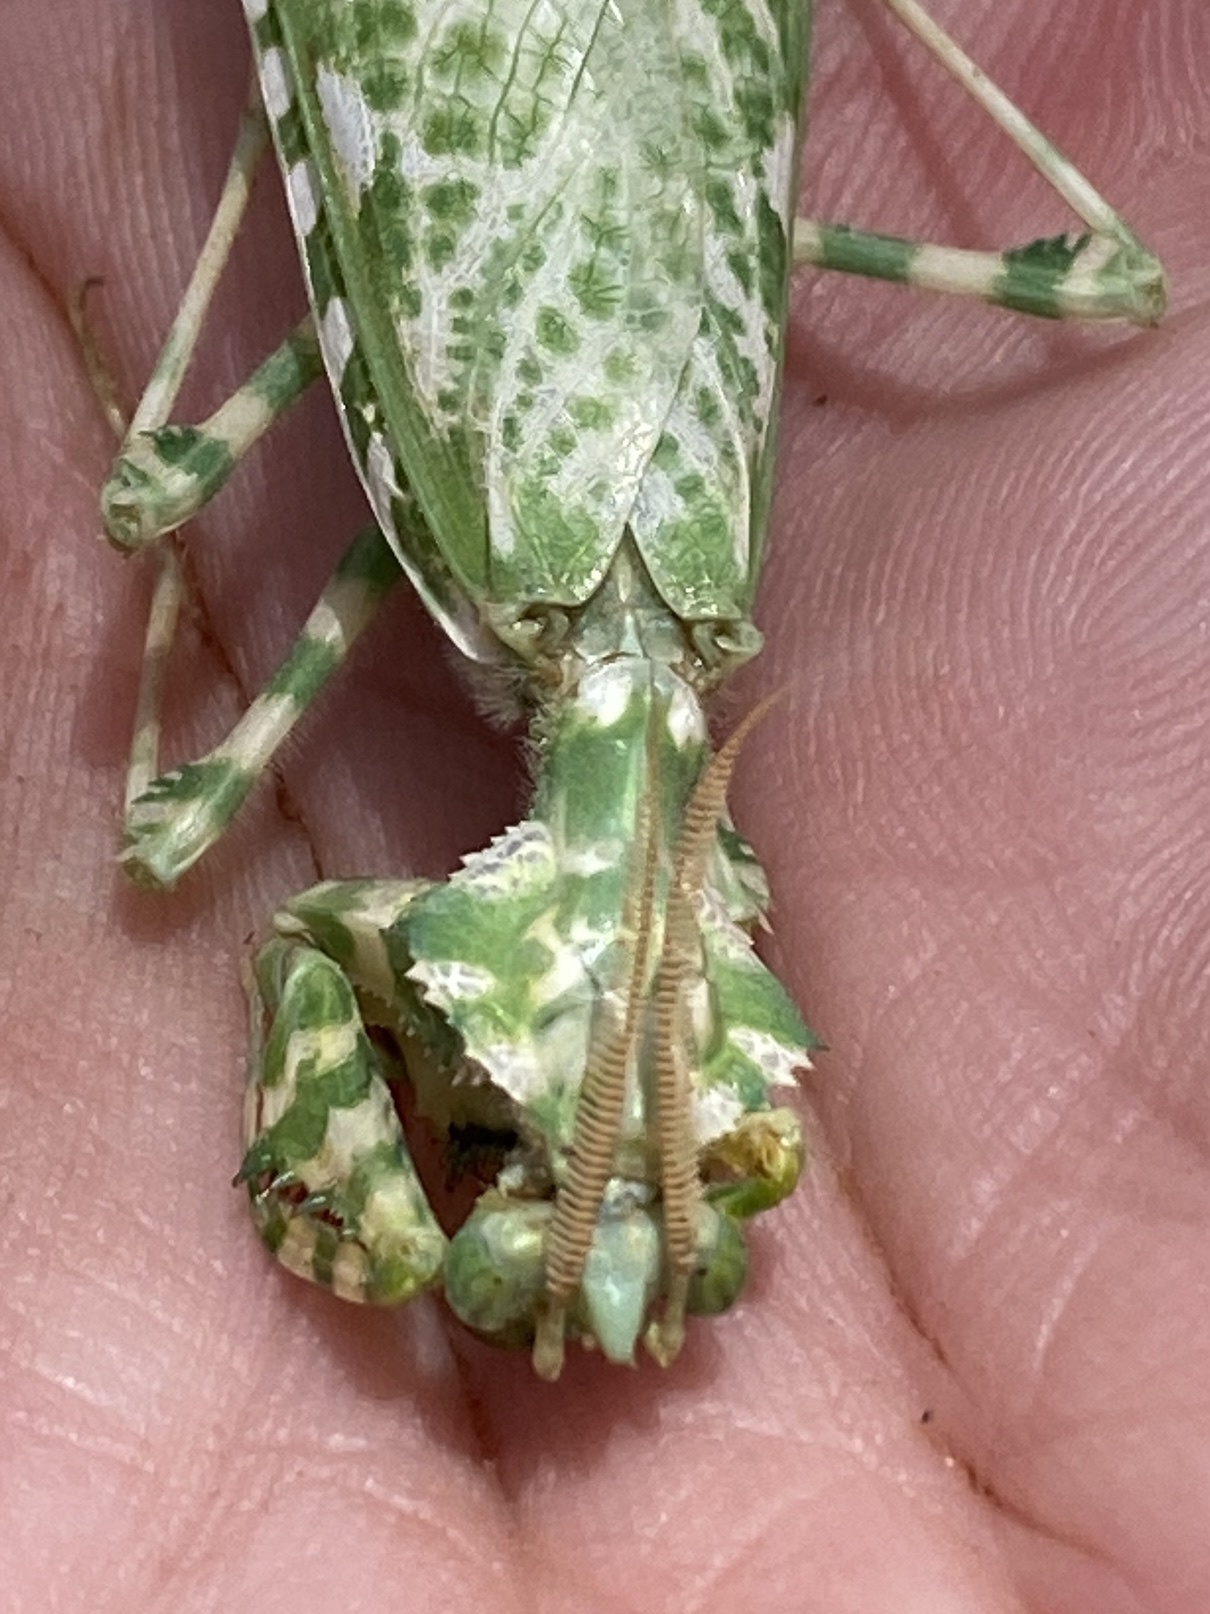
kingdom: Animalia
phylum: Arthropoda
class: Insecta
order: Mantodea
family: Empusidae
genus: Blepharopsis
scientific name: Blepharopsis mendica
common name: Devil's flower mantis
